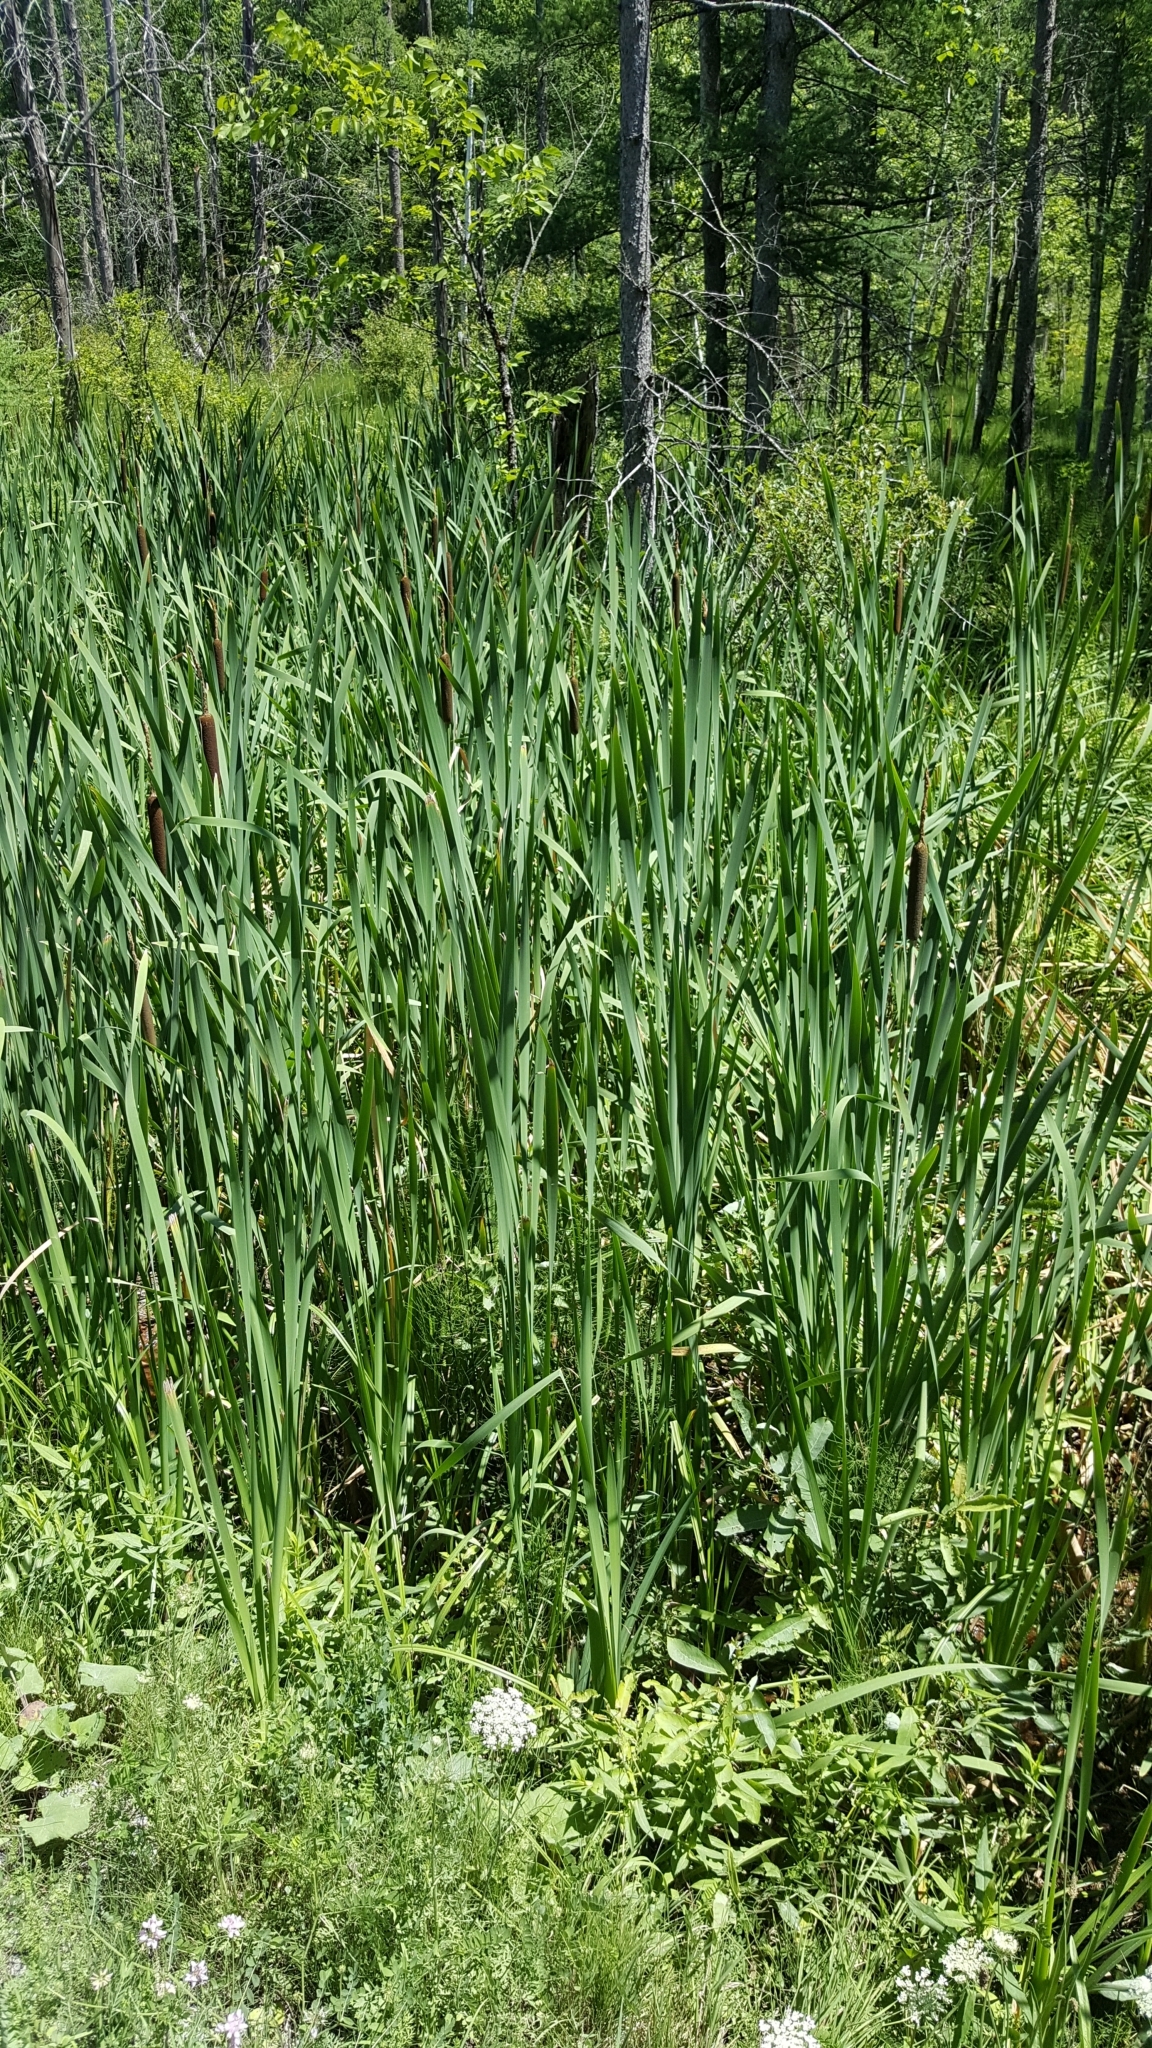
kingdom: Plantae
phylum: Tracheophyta
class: Liliopsida
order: Poales
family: Typhaceae
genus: Typha
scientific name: Typha latifolia
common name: Broadleaf cattail
